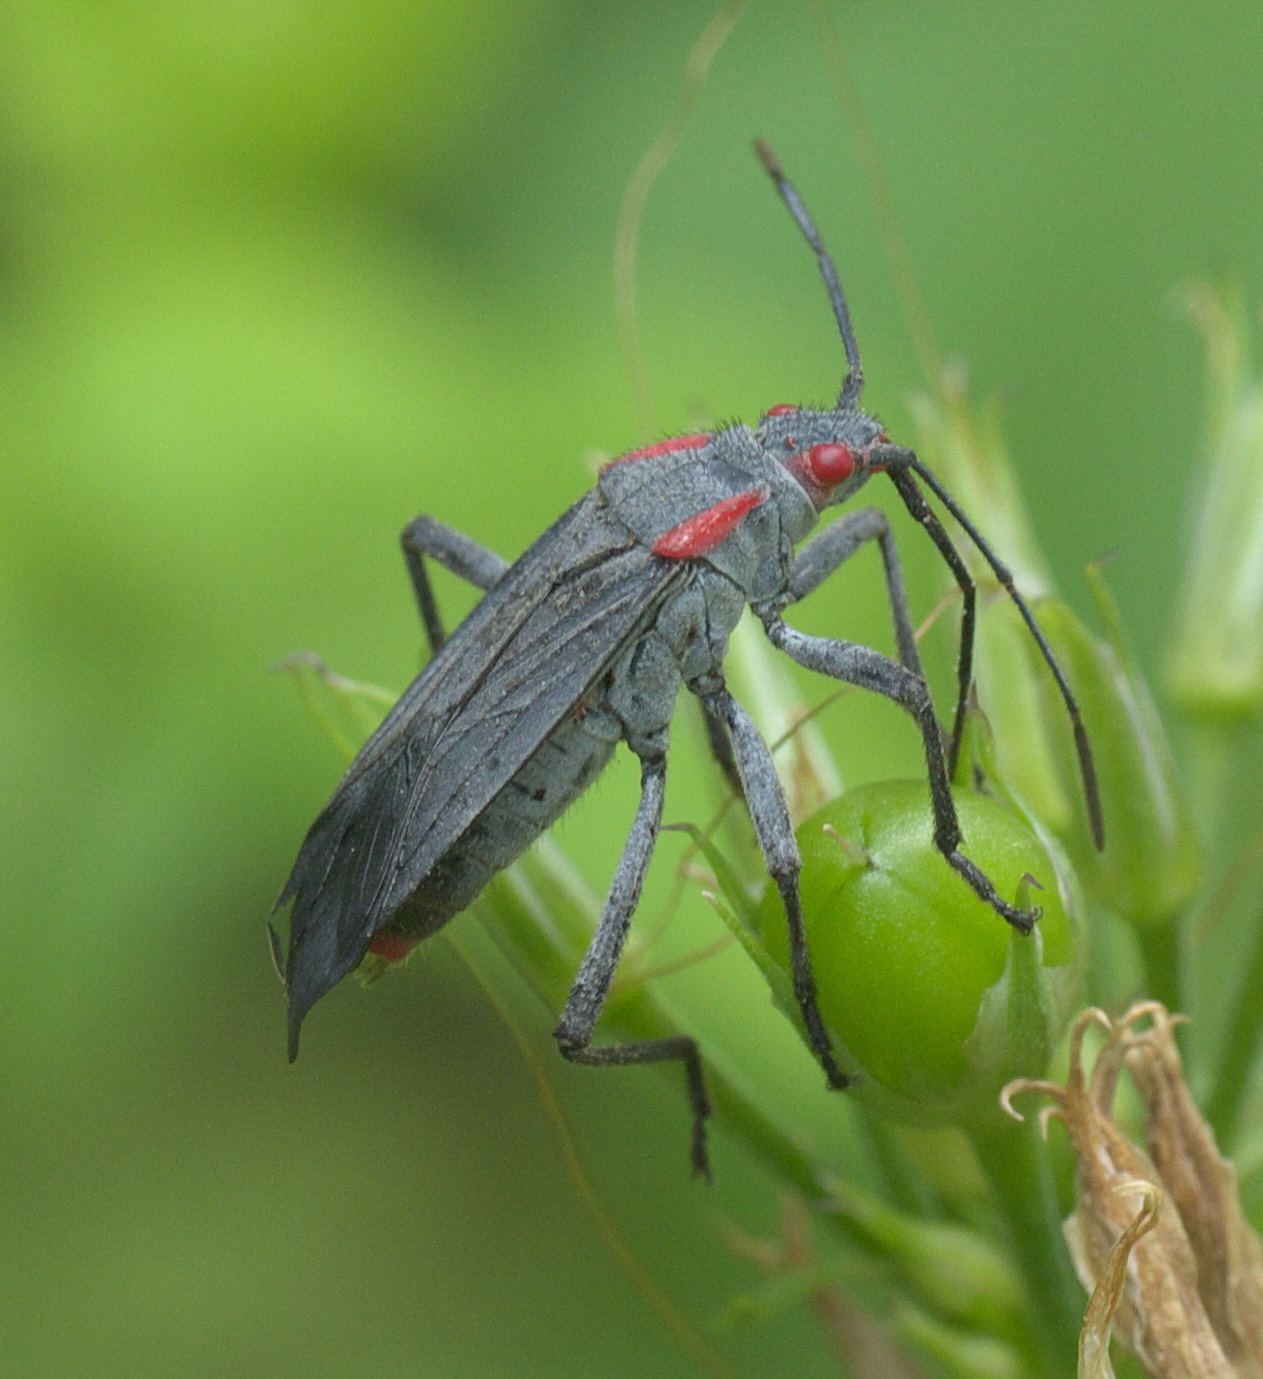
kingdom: Animalia
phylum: Arthropoda
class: Insecta
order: Hemiptera
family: Rhopalidae
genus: Jadera
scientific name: Jadera haematoloma
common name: Red-shouldered bug
